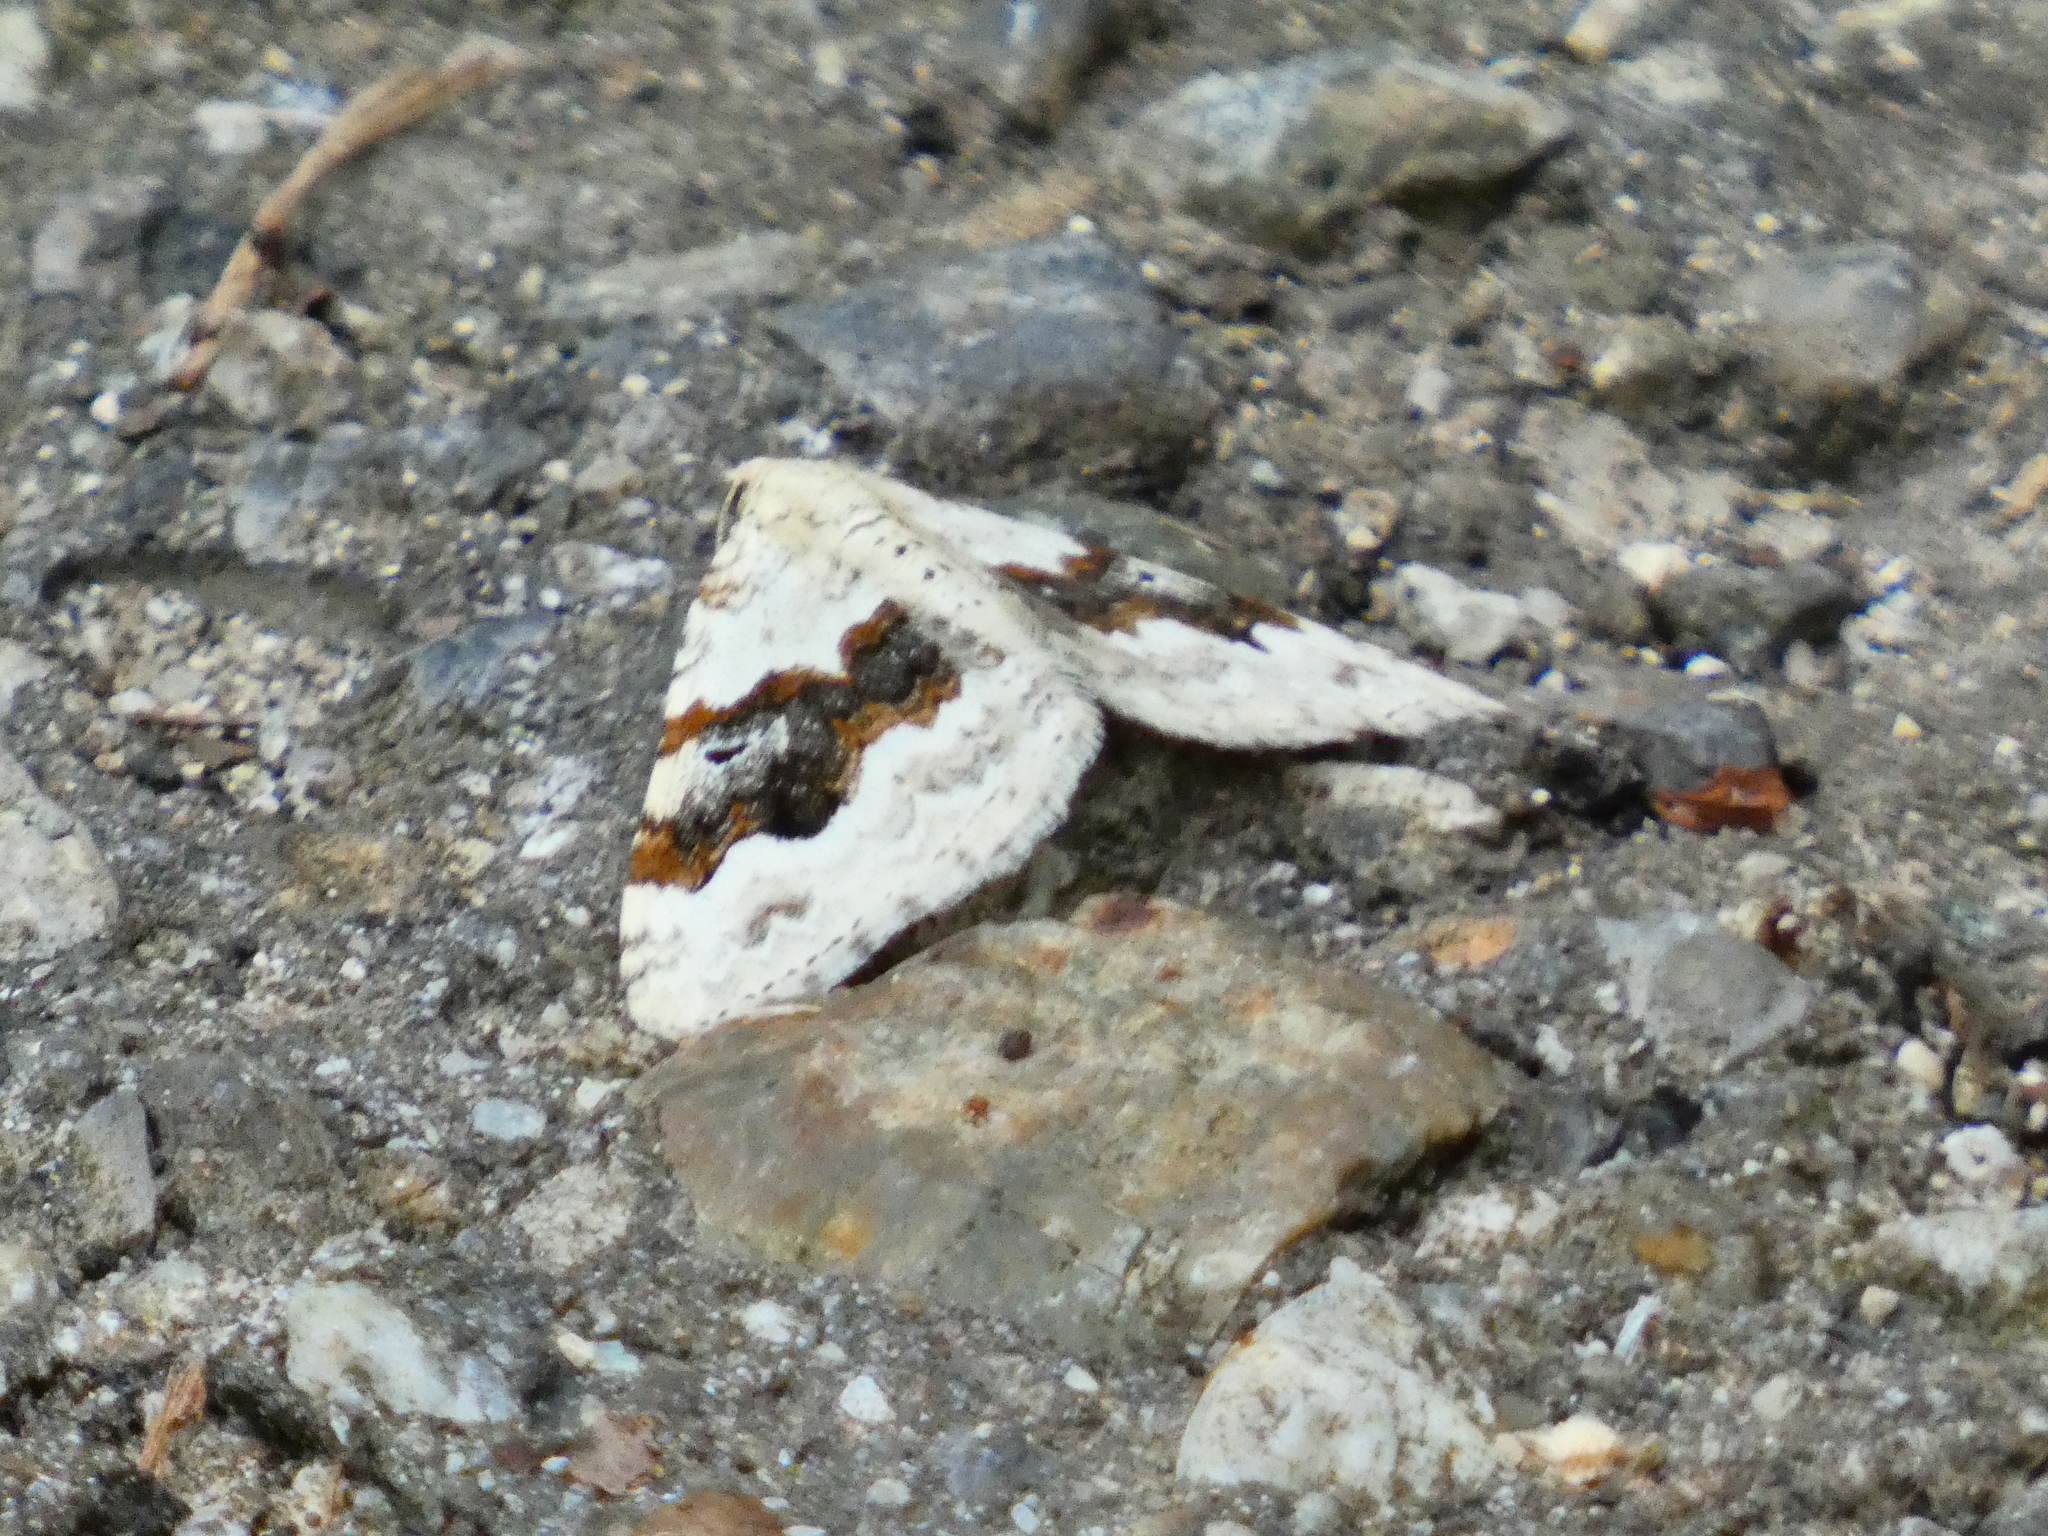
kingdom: Animalia
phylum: Arthropoda
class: Insecta
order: Lepidoptera
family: Geometridae
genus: Xanthorhoe
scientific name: Xanthorhoe montanata
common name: Silver-ground carpet
